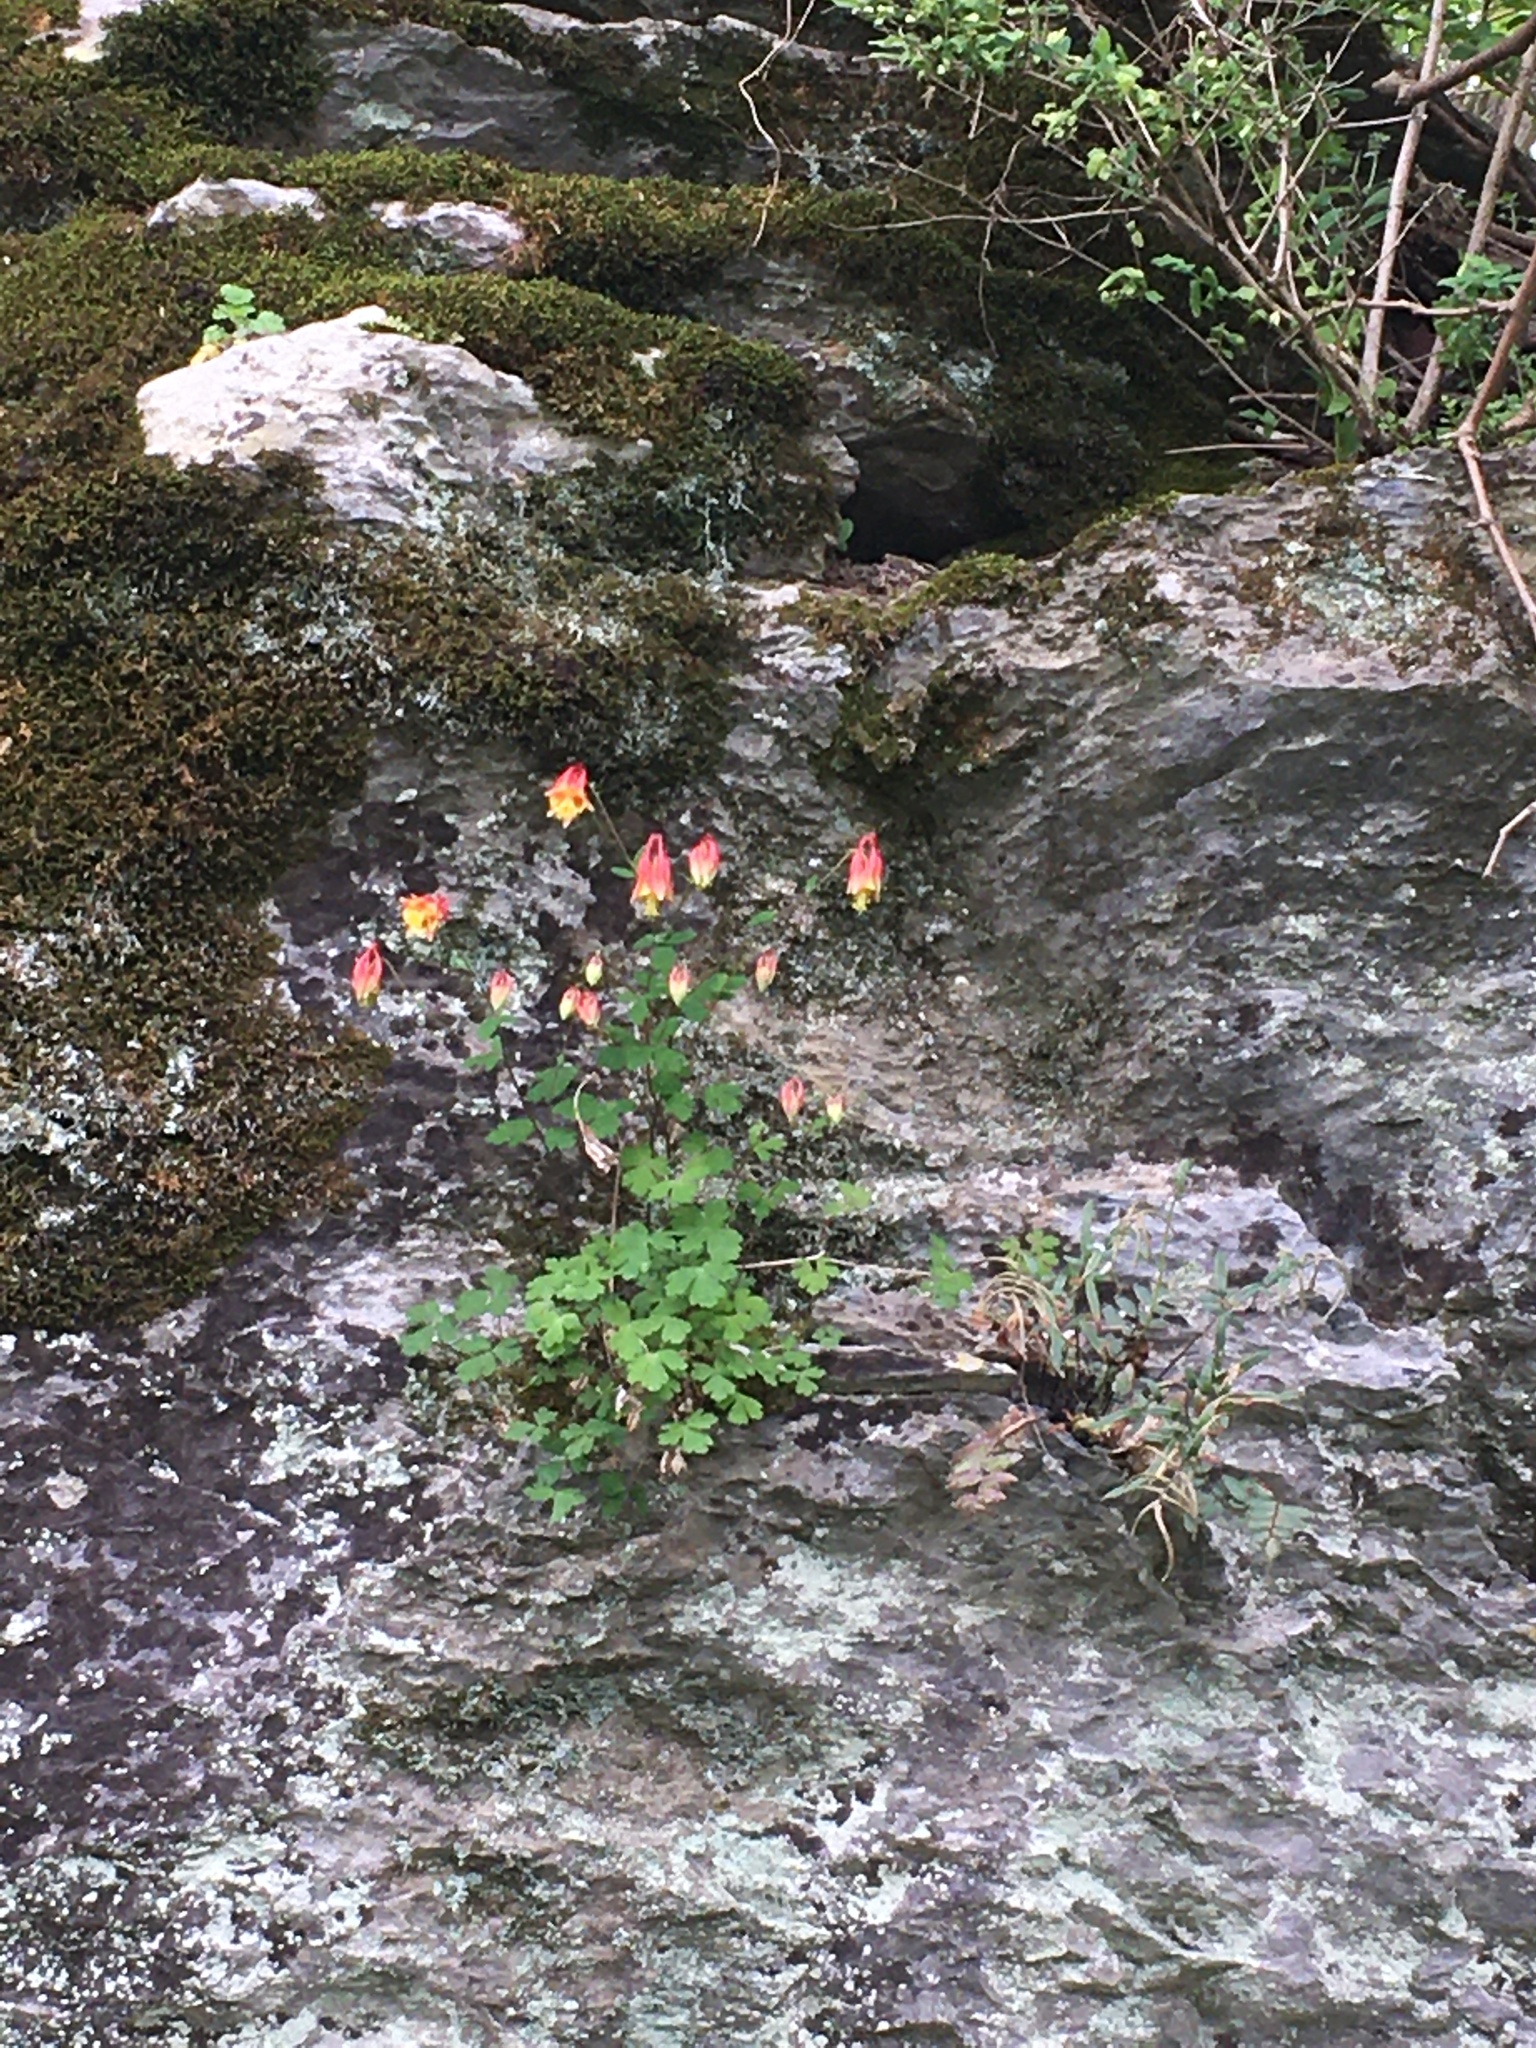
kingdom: Plantae
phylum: Tracheophyta
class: Magnoliopsida
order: Ranunculales
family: Ranunculaceae
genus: Aquilegia
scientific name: Aquilegia canadensis
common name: American columbine
